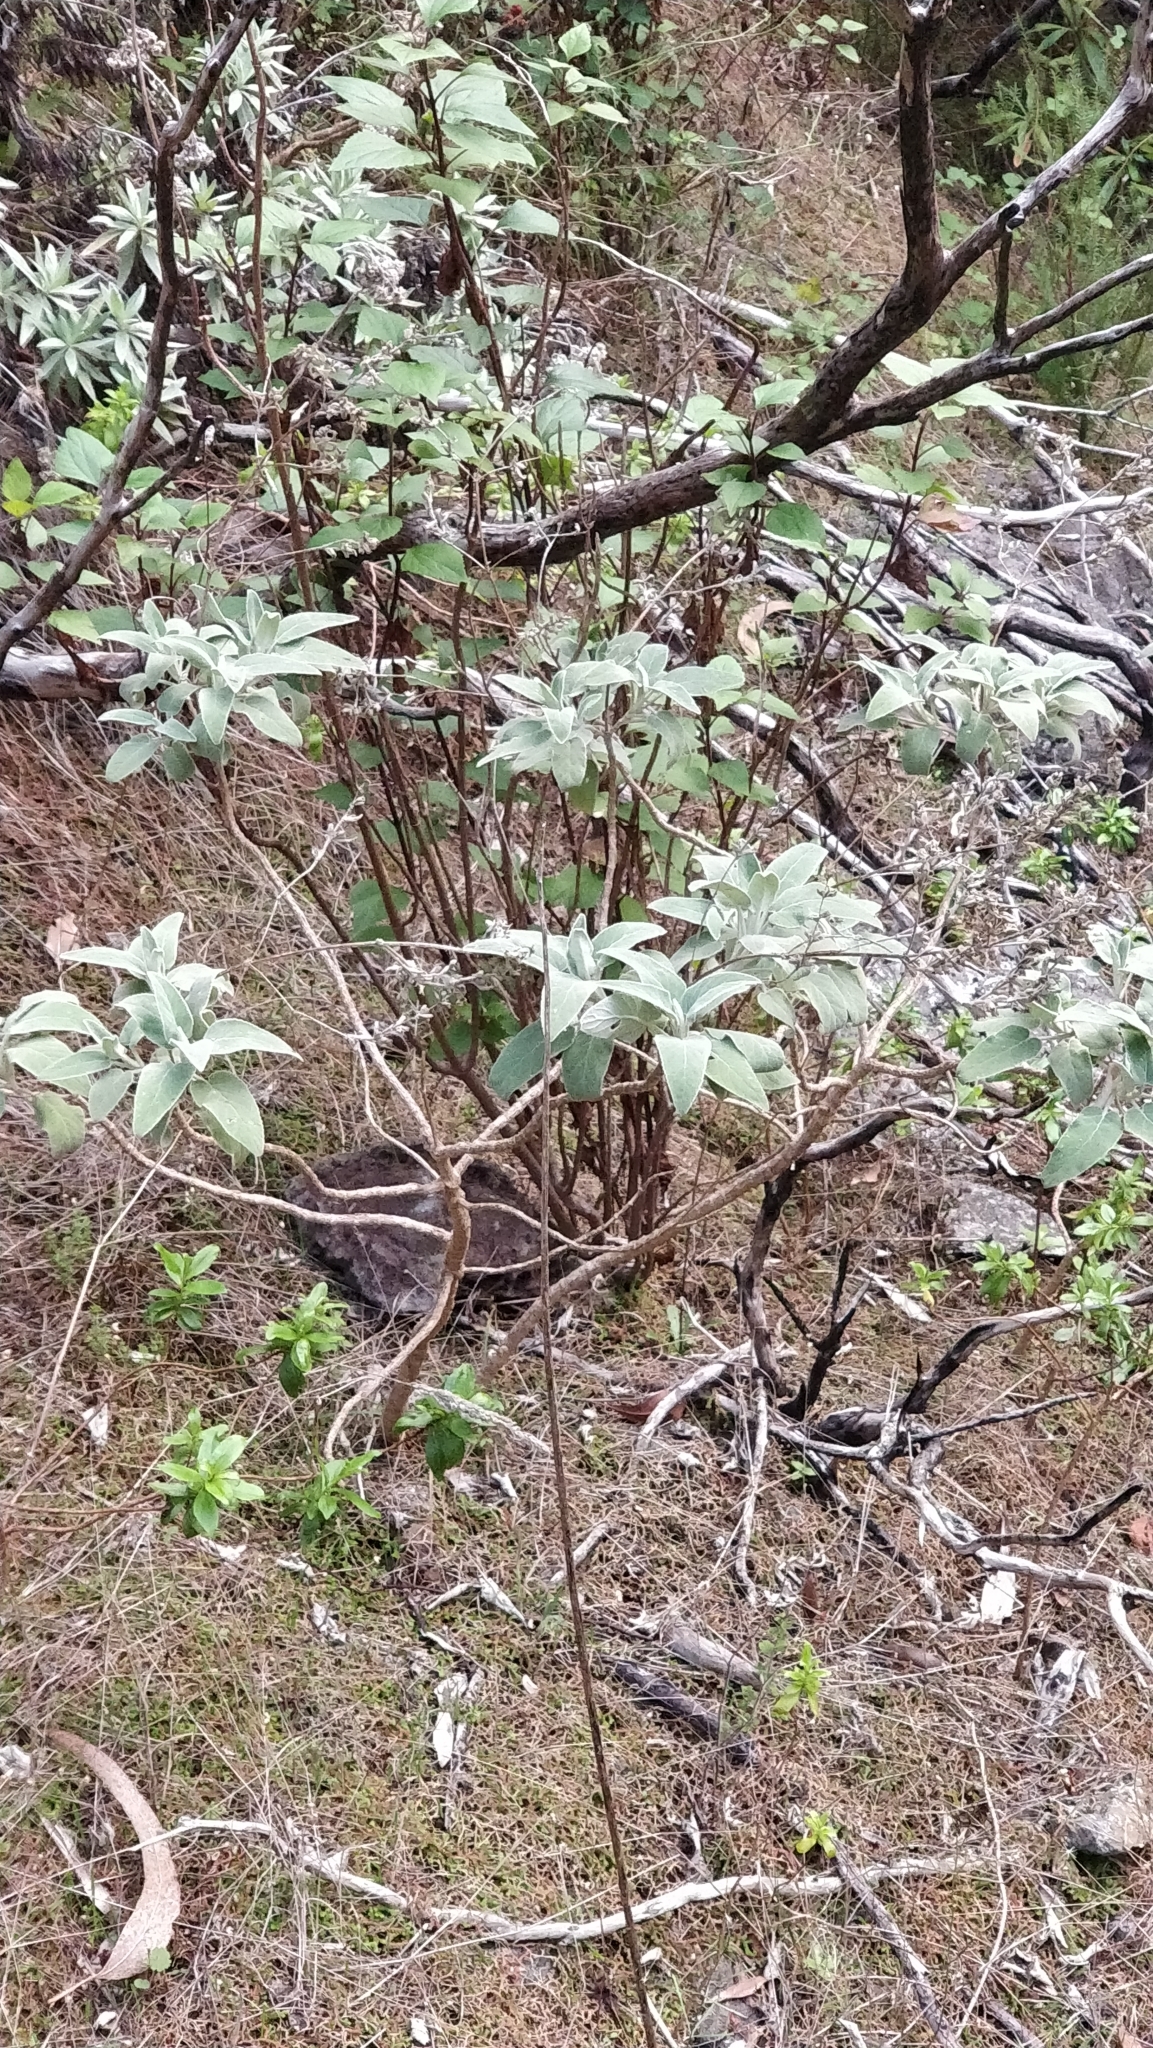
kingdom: Plantae
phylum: Tracheophyta
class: Magnoliopsida
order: Lamiales
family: Lamiaceae
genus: Sideritis
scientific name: Sideritis candicans
